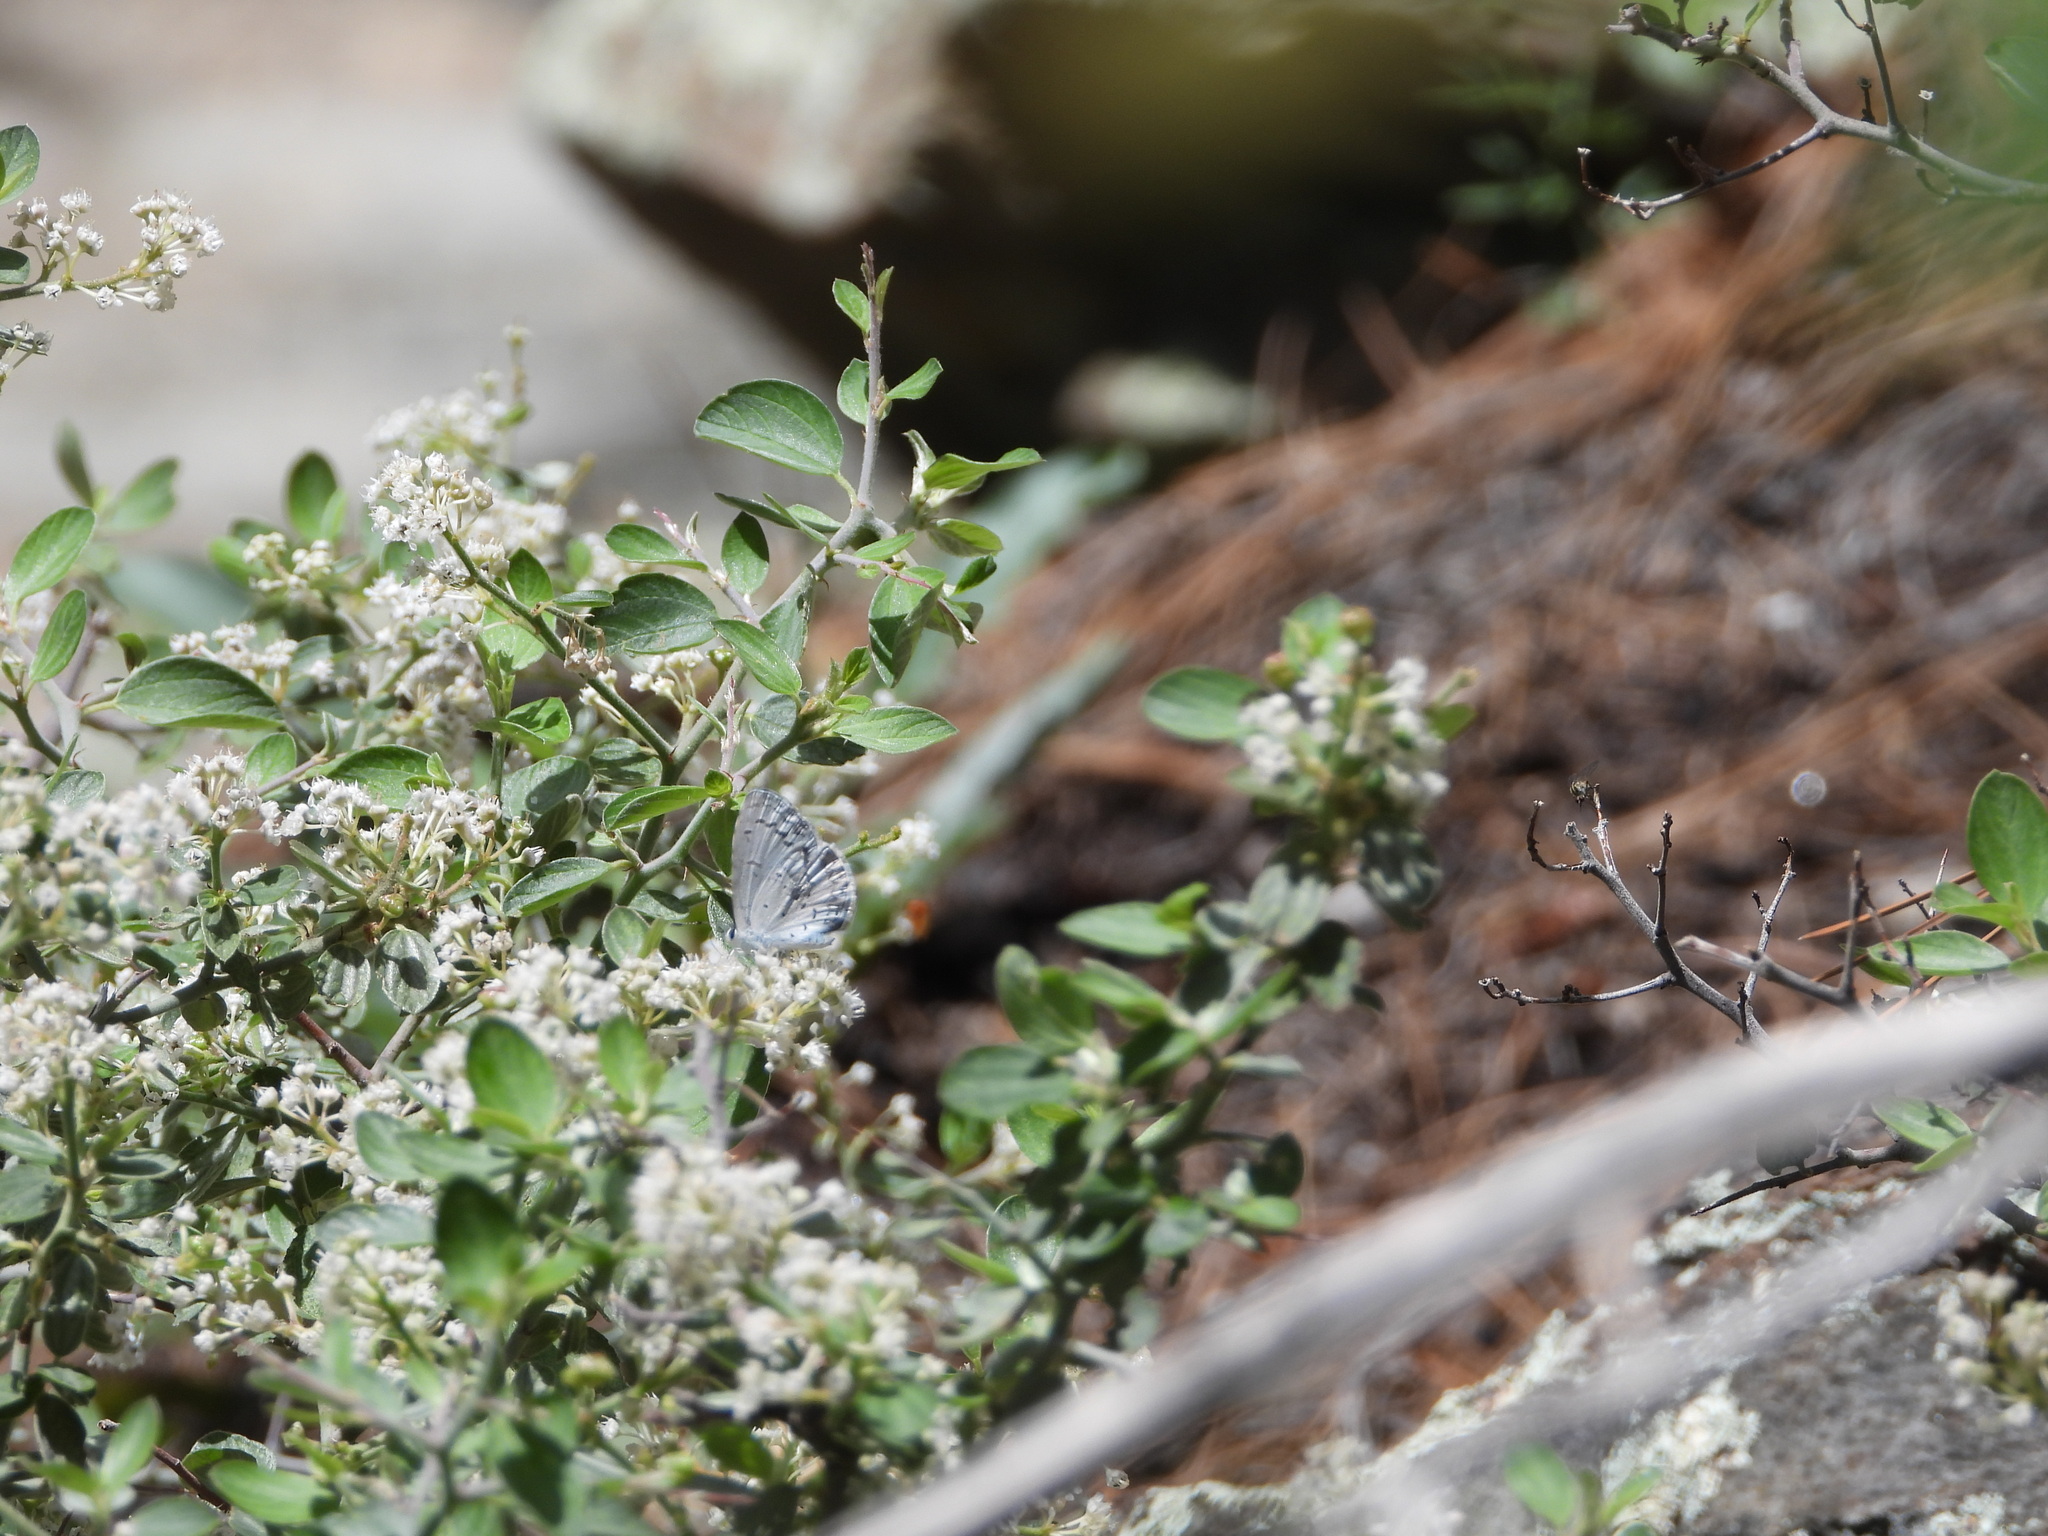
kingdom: Animalia
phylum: Arthropoda
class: Insecta
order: Lepidoptera
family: Lycaenidae
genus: Celastrina
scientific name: Celastrina ladon
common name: Spring azure
